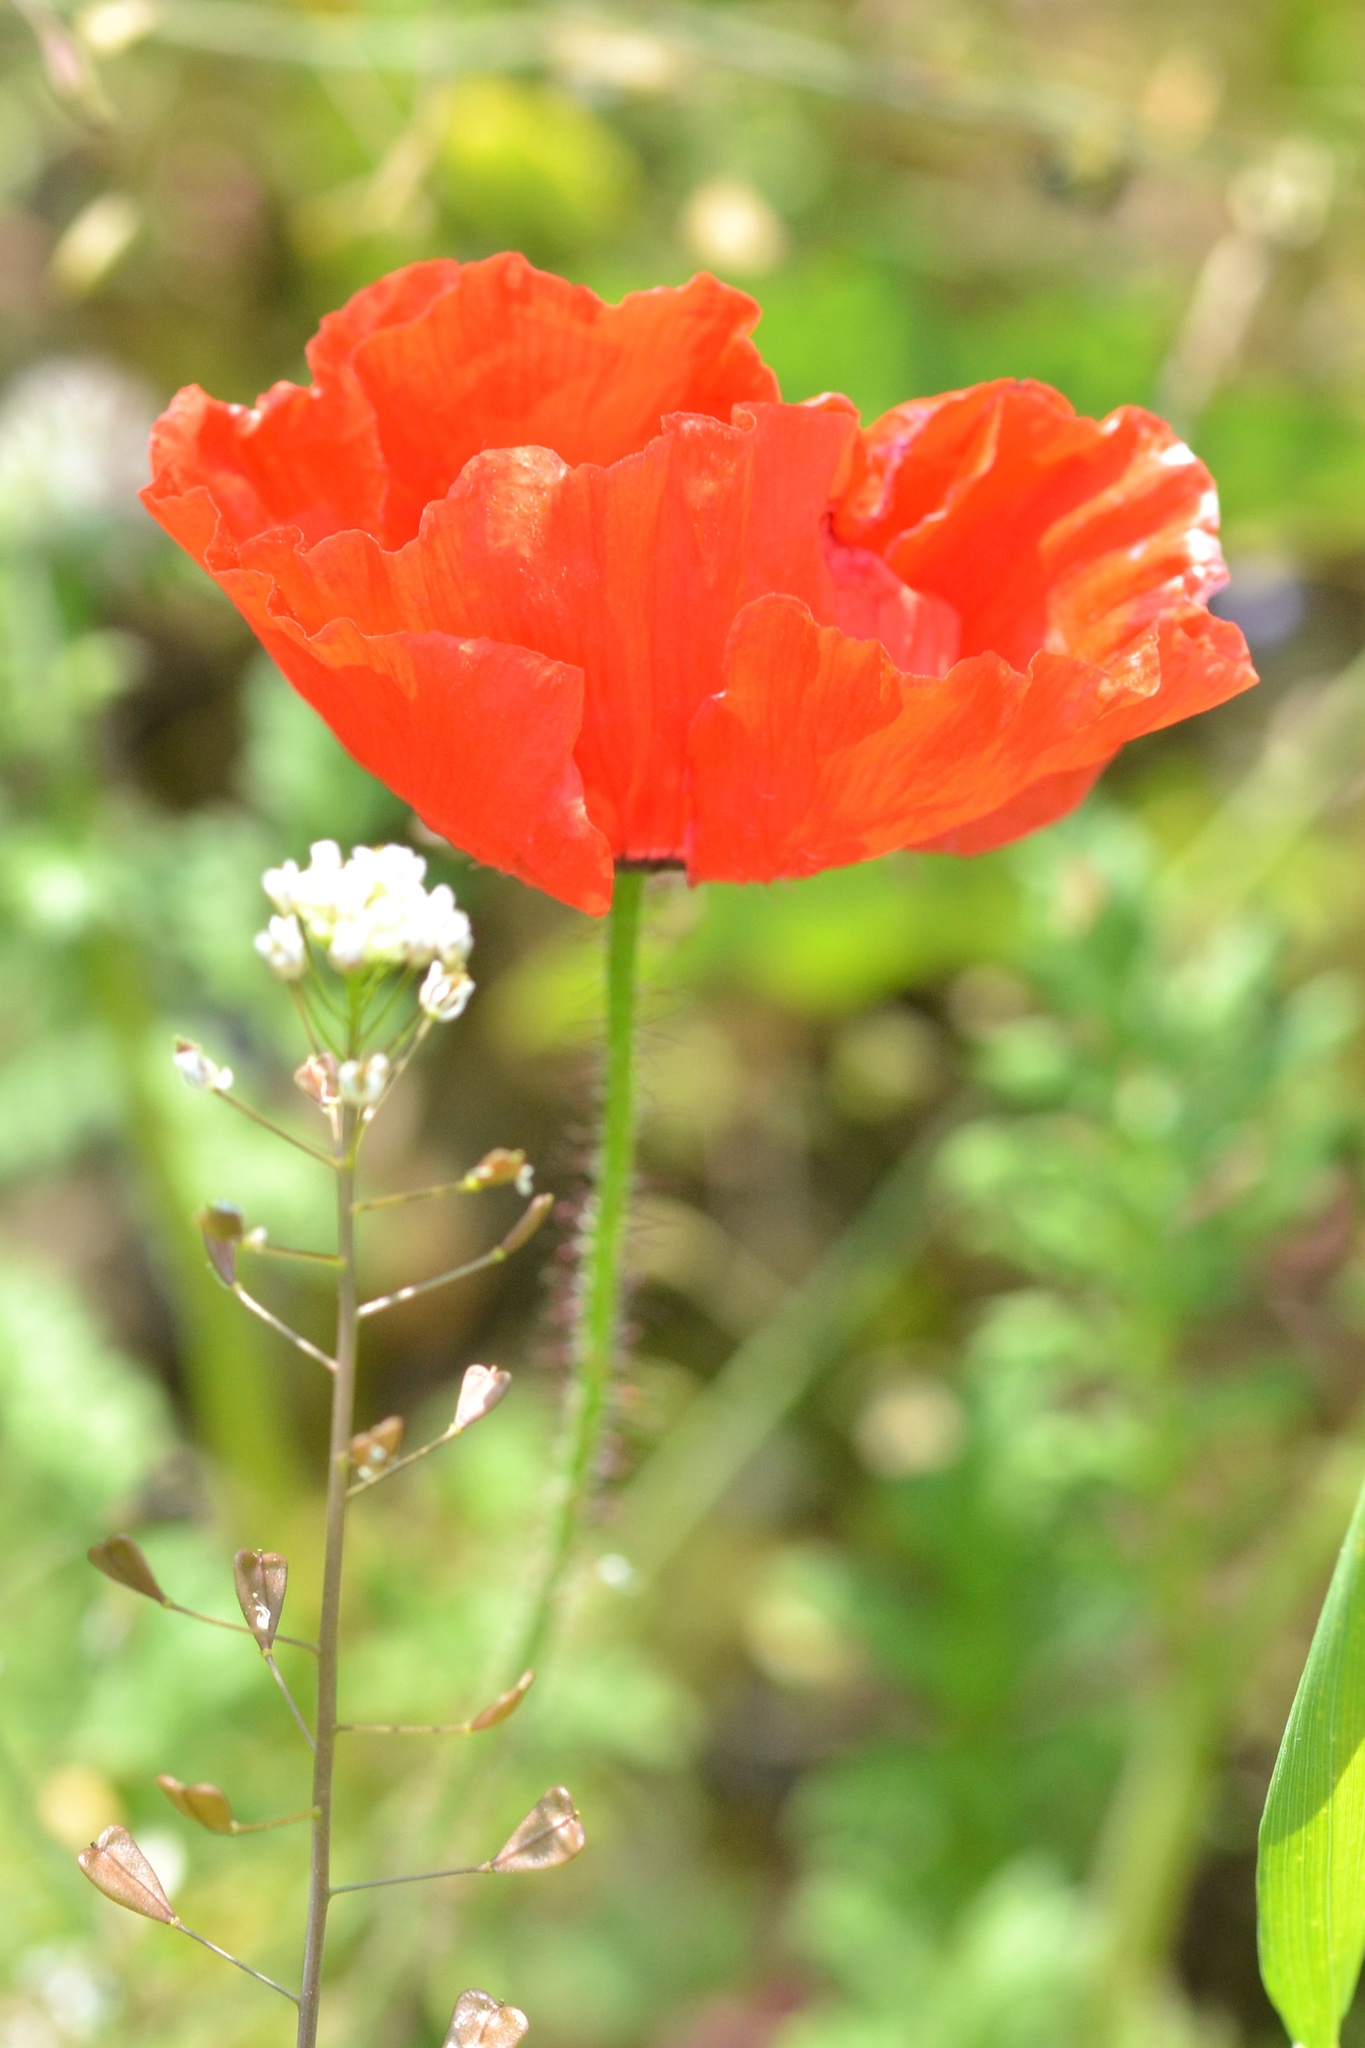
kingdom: Plantae
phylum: Tracheophyta
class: Magnoliopsida
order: Ranunculales
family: Papaveraceae
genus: Papaver
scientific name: Papaver rhoeas
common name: Corn poppy
